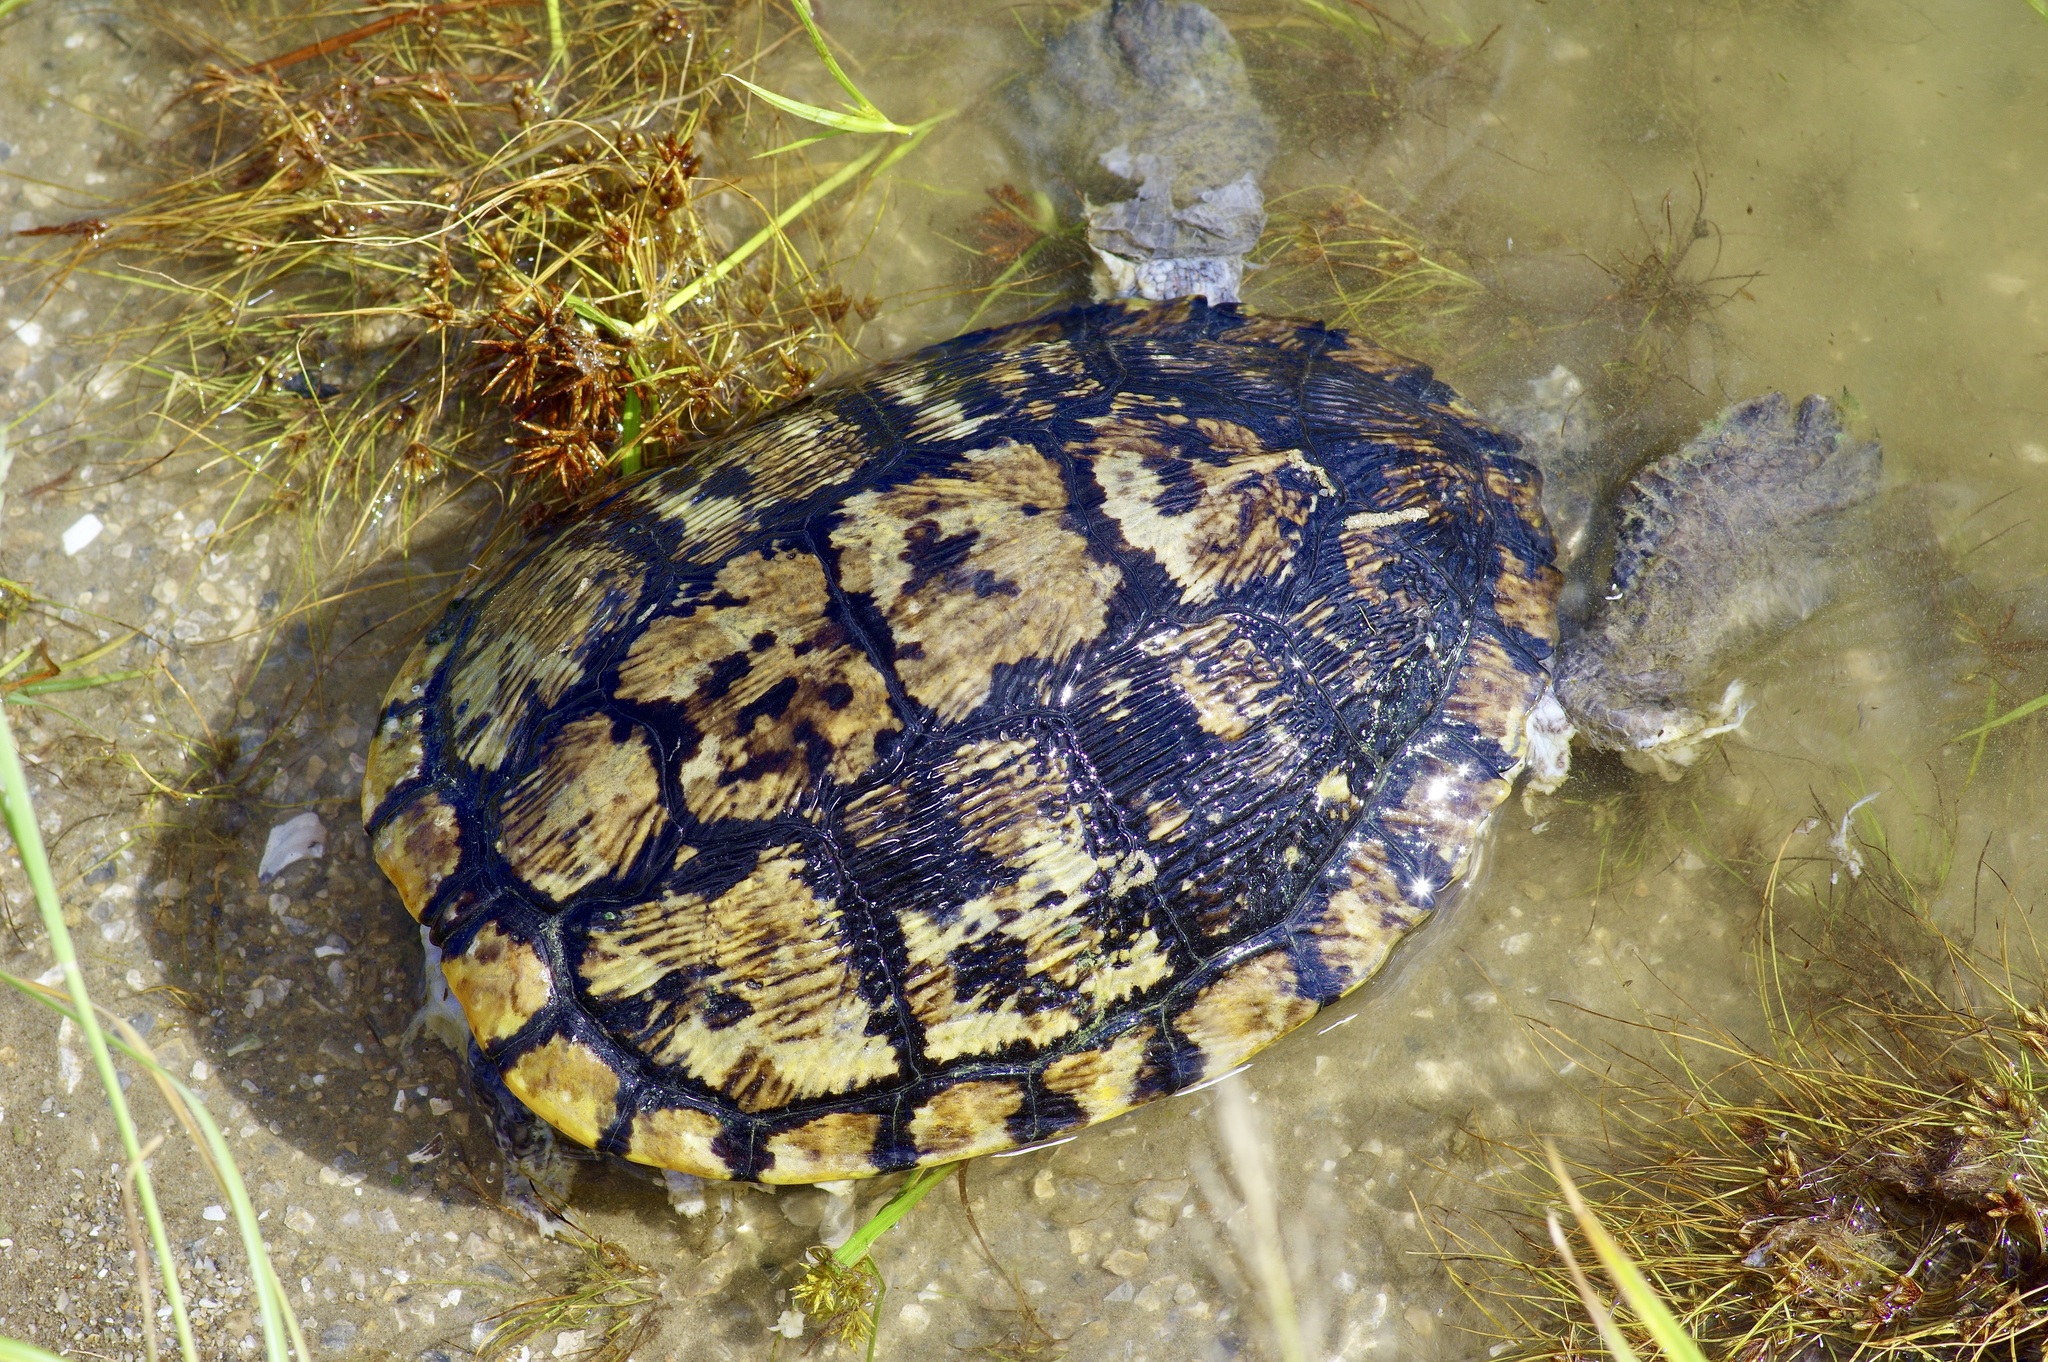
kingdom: Animalia
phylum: Chordata
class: Testudines
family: Emydidae
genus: Trachemys
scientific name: Trachemys scripta
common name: Slider
